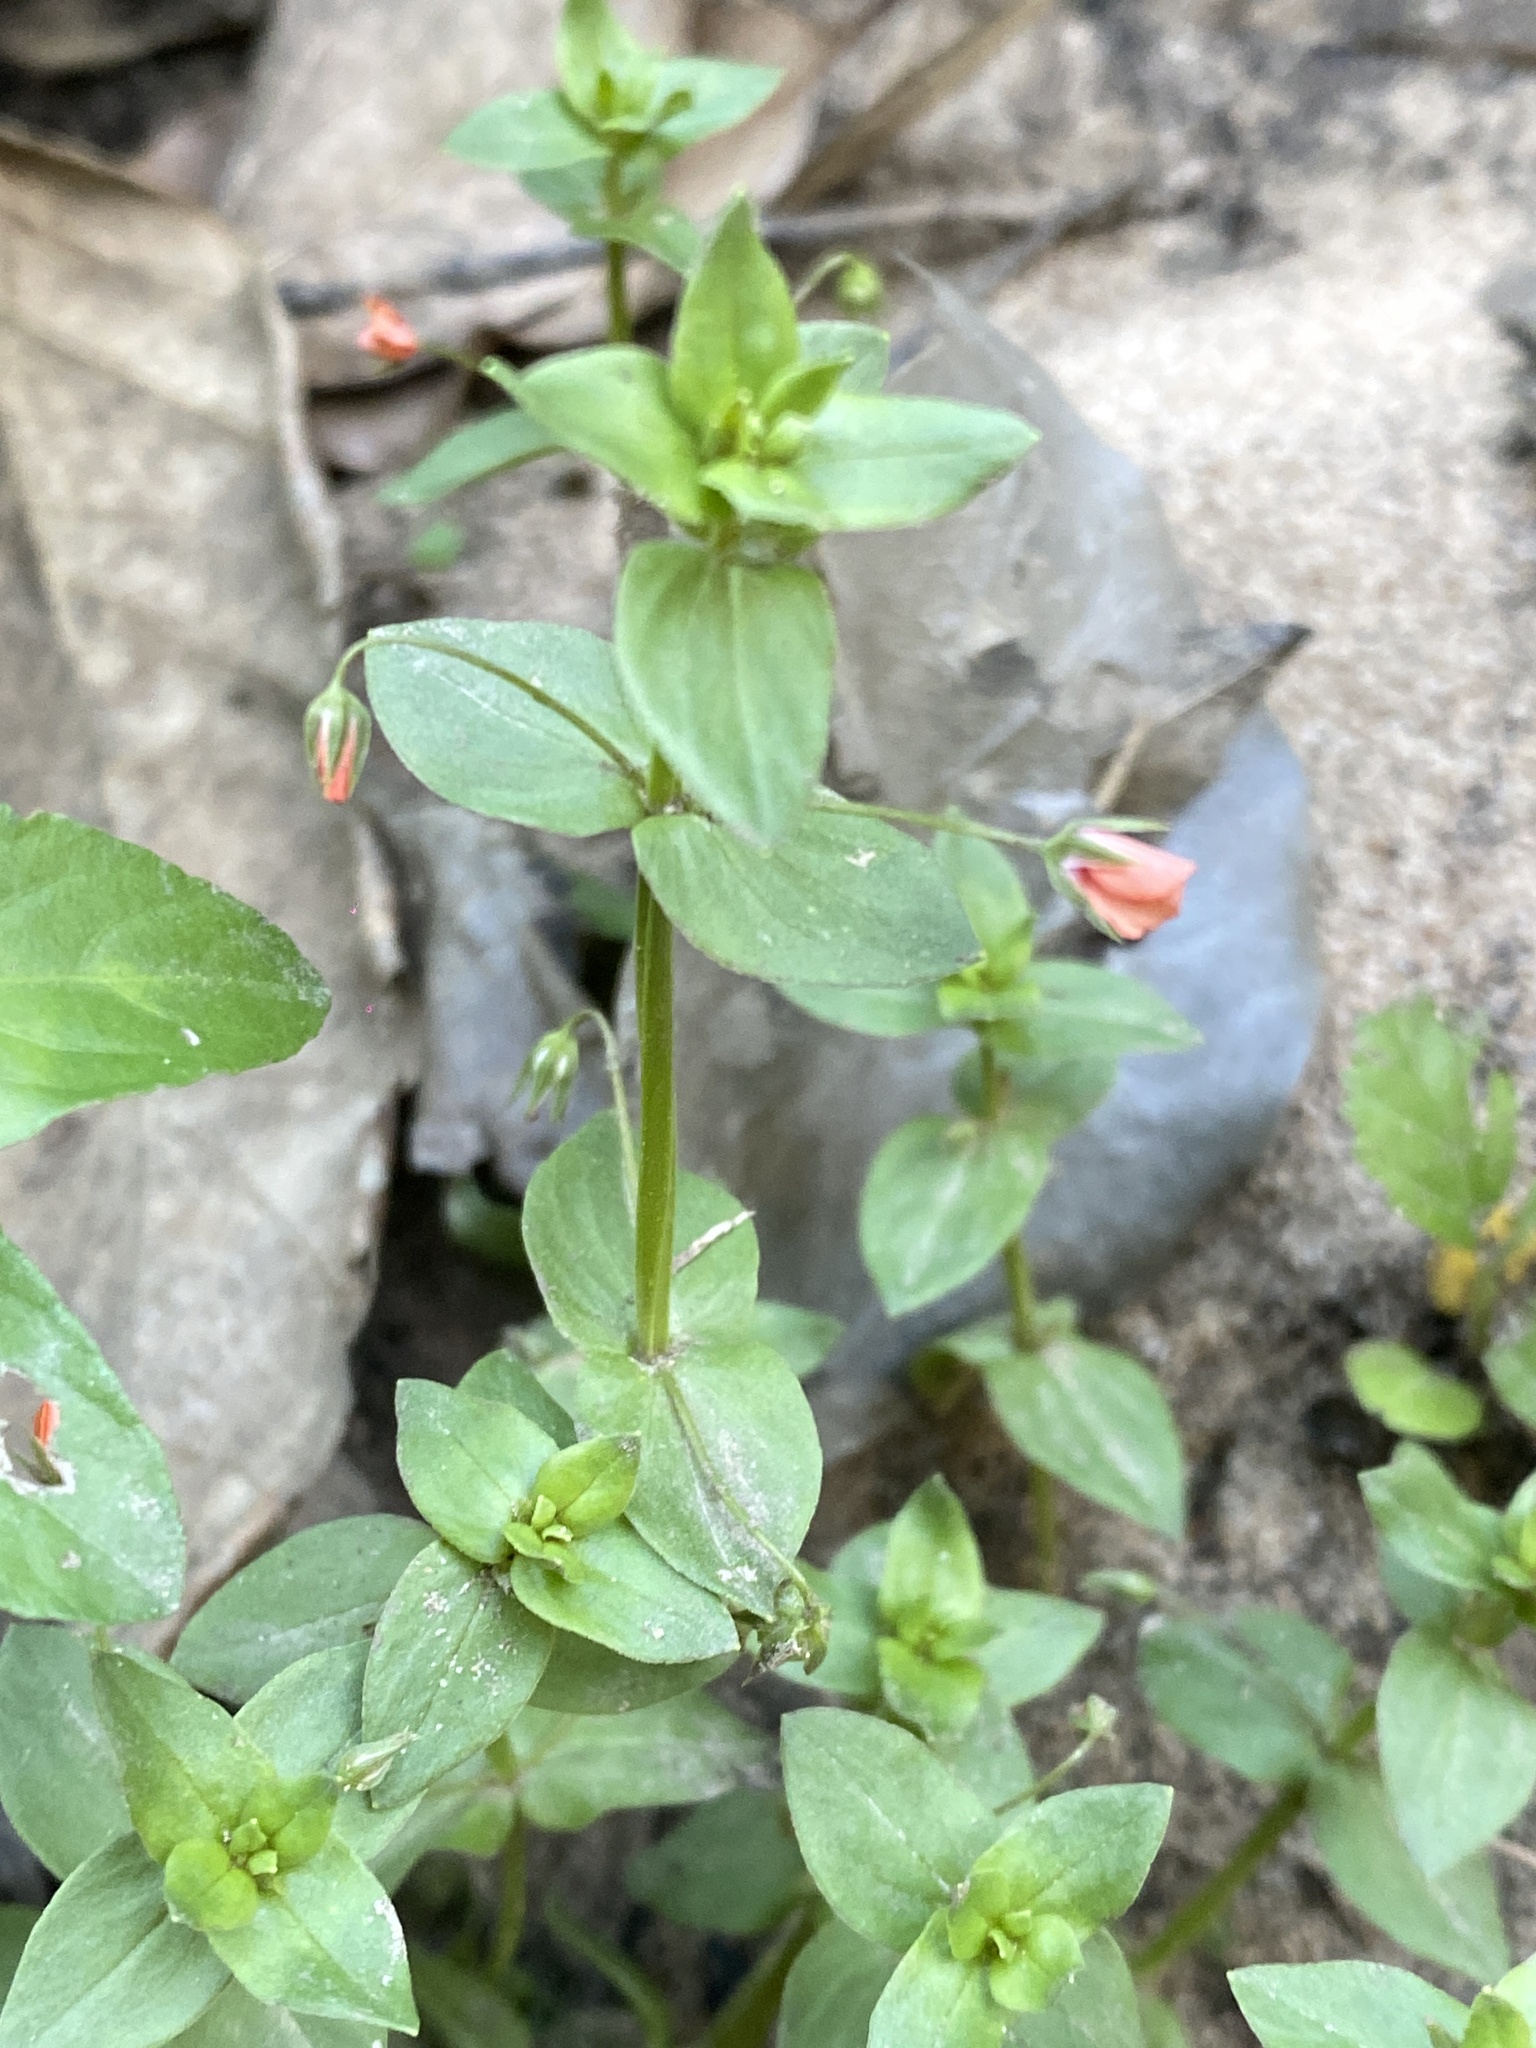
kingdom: Plantae
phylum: Tracheophyta
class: Magnoliopsida
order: Ericales
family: Primulaceae
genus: Lysimachia
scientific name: Lysimachia arvensis
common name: Scarlet pimpernel
